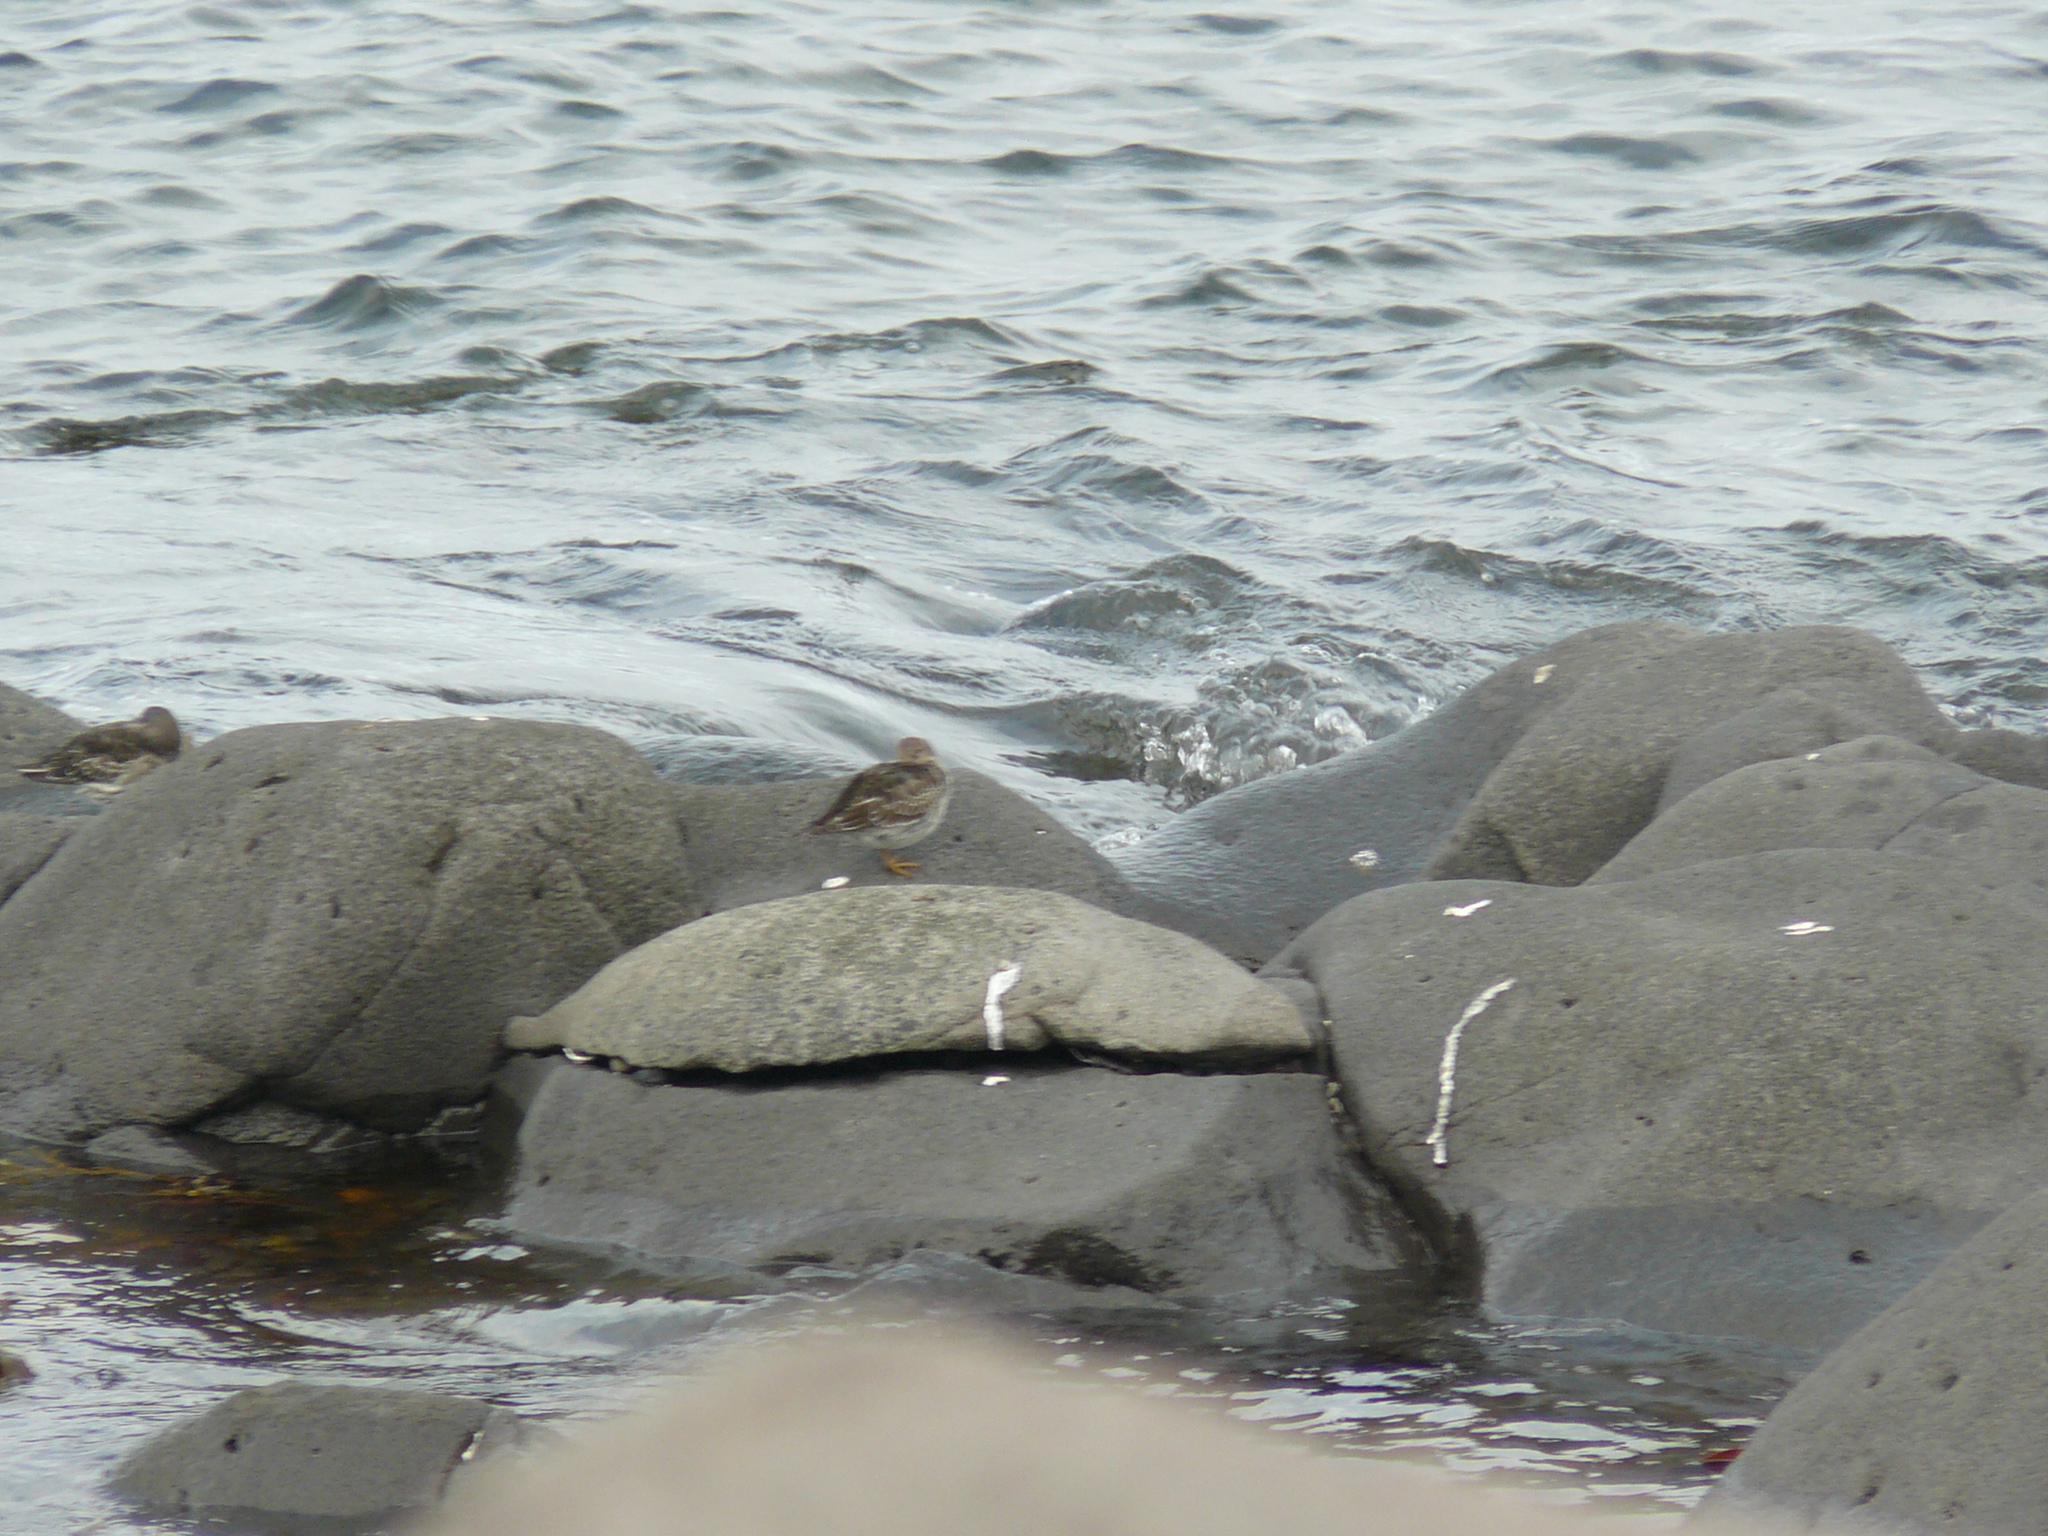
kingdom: Animalia
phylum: Chordata
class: Aves
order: Charadriiformes
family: Scolopacidae
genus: Calidris
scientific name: Calidris maritima
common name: Purple sandpiper
